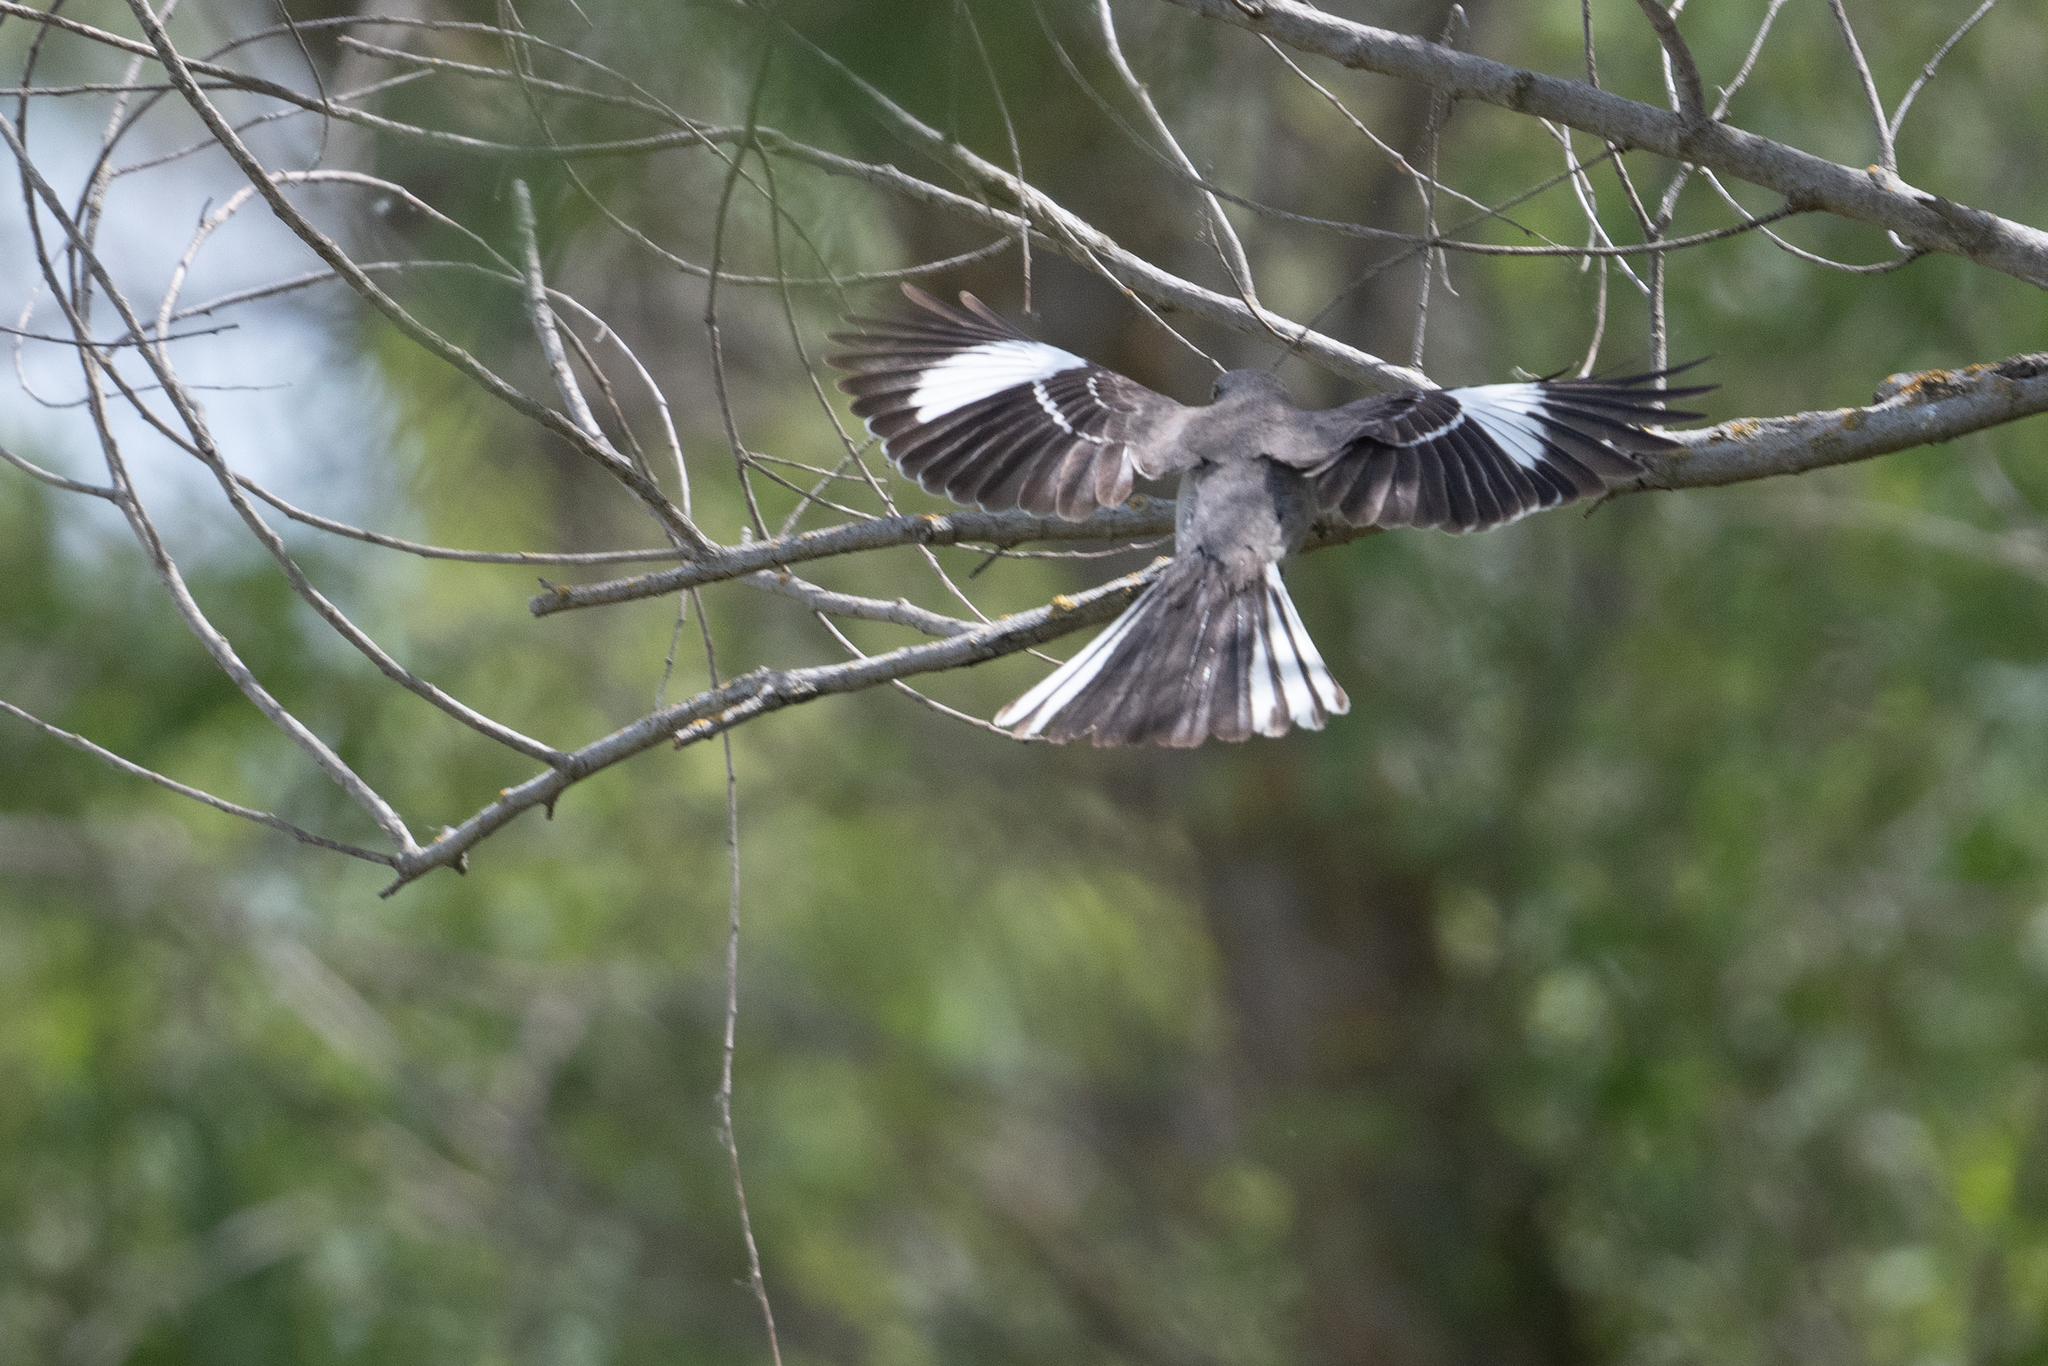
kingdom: Animalia
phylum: Chordata
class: Aves
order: Passeriformes
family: Mimidae
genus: Mimus
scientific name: Mimus polyglottos
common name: Northern mockingbird
